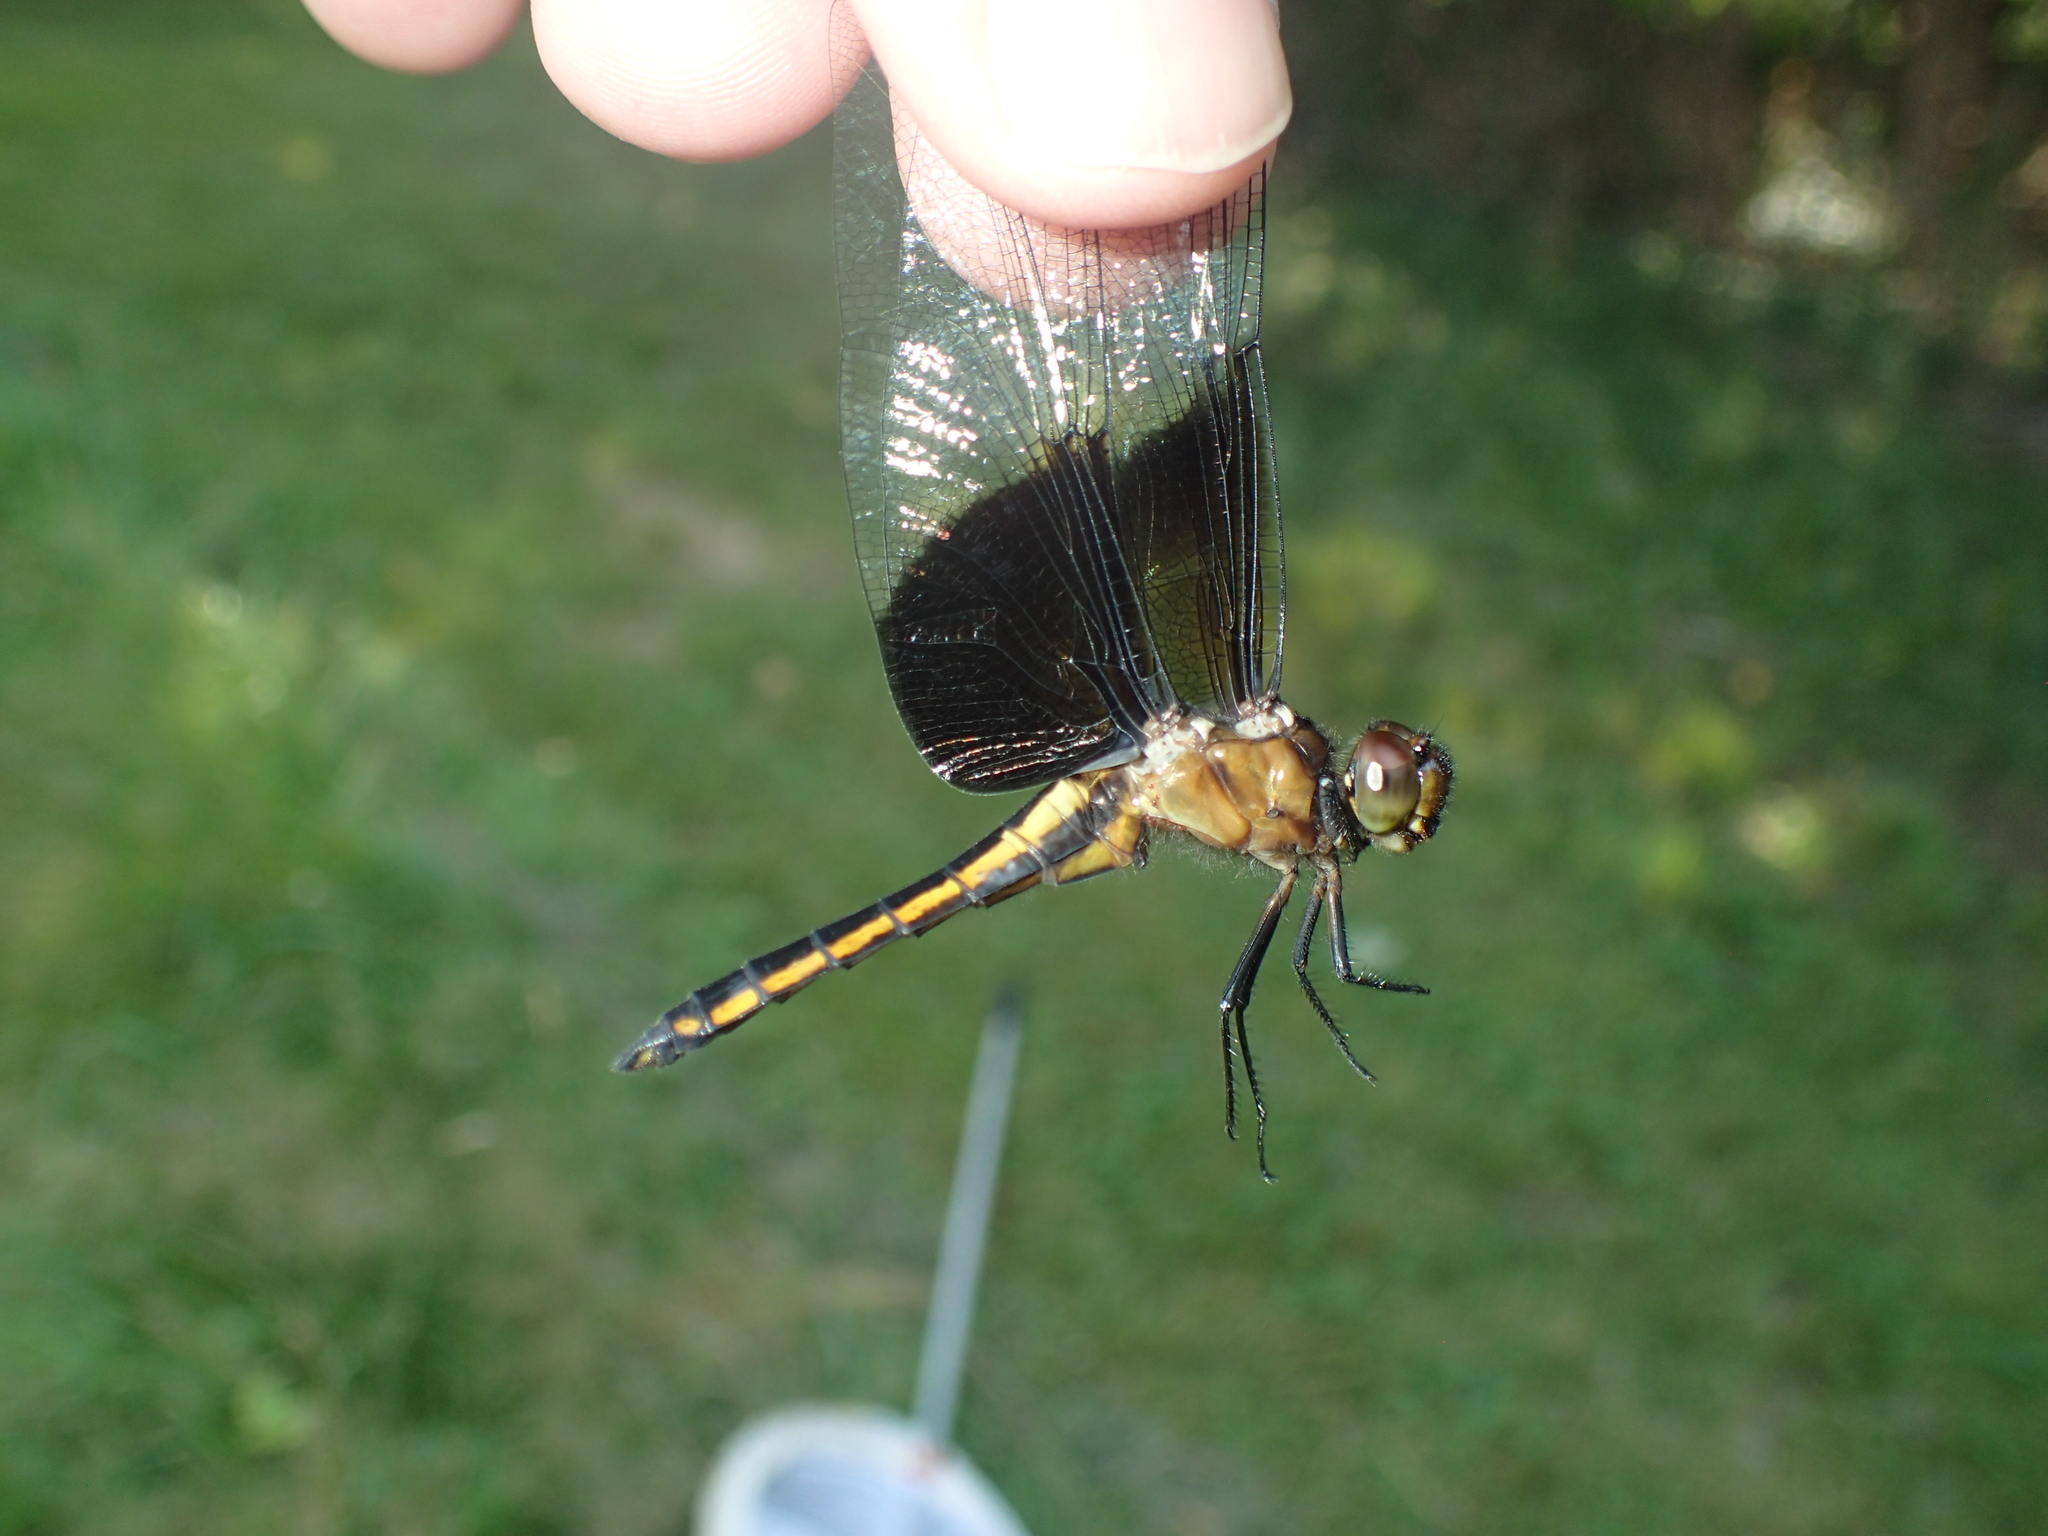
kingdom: Animalia
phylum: Arthropoda
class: Insecta
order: Odonata
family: Libellulidae
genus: Libellula
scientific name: Libellula luctuosa
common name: Widow skimmer
